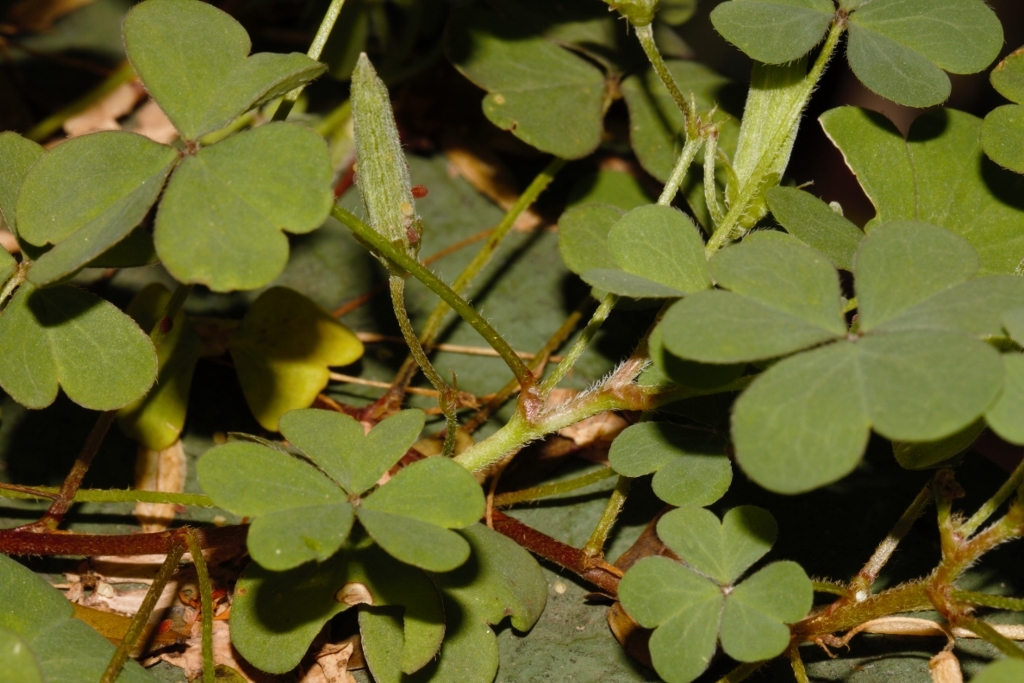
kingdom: Plantae
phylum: Tracheophyta
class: Magnoliopsida
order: Oxalidales
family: Oxalidaceae
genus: Oxalis
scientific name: Oxalis corniculata
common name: Procumbent yellow-sorrel
